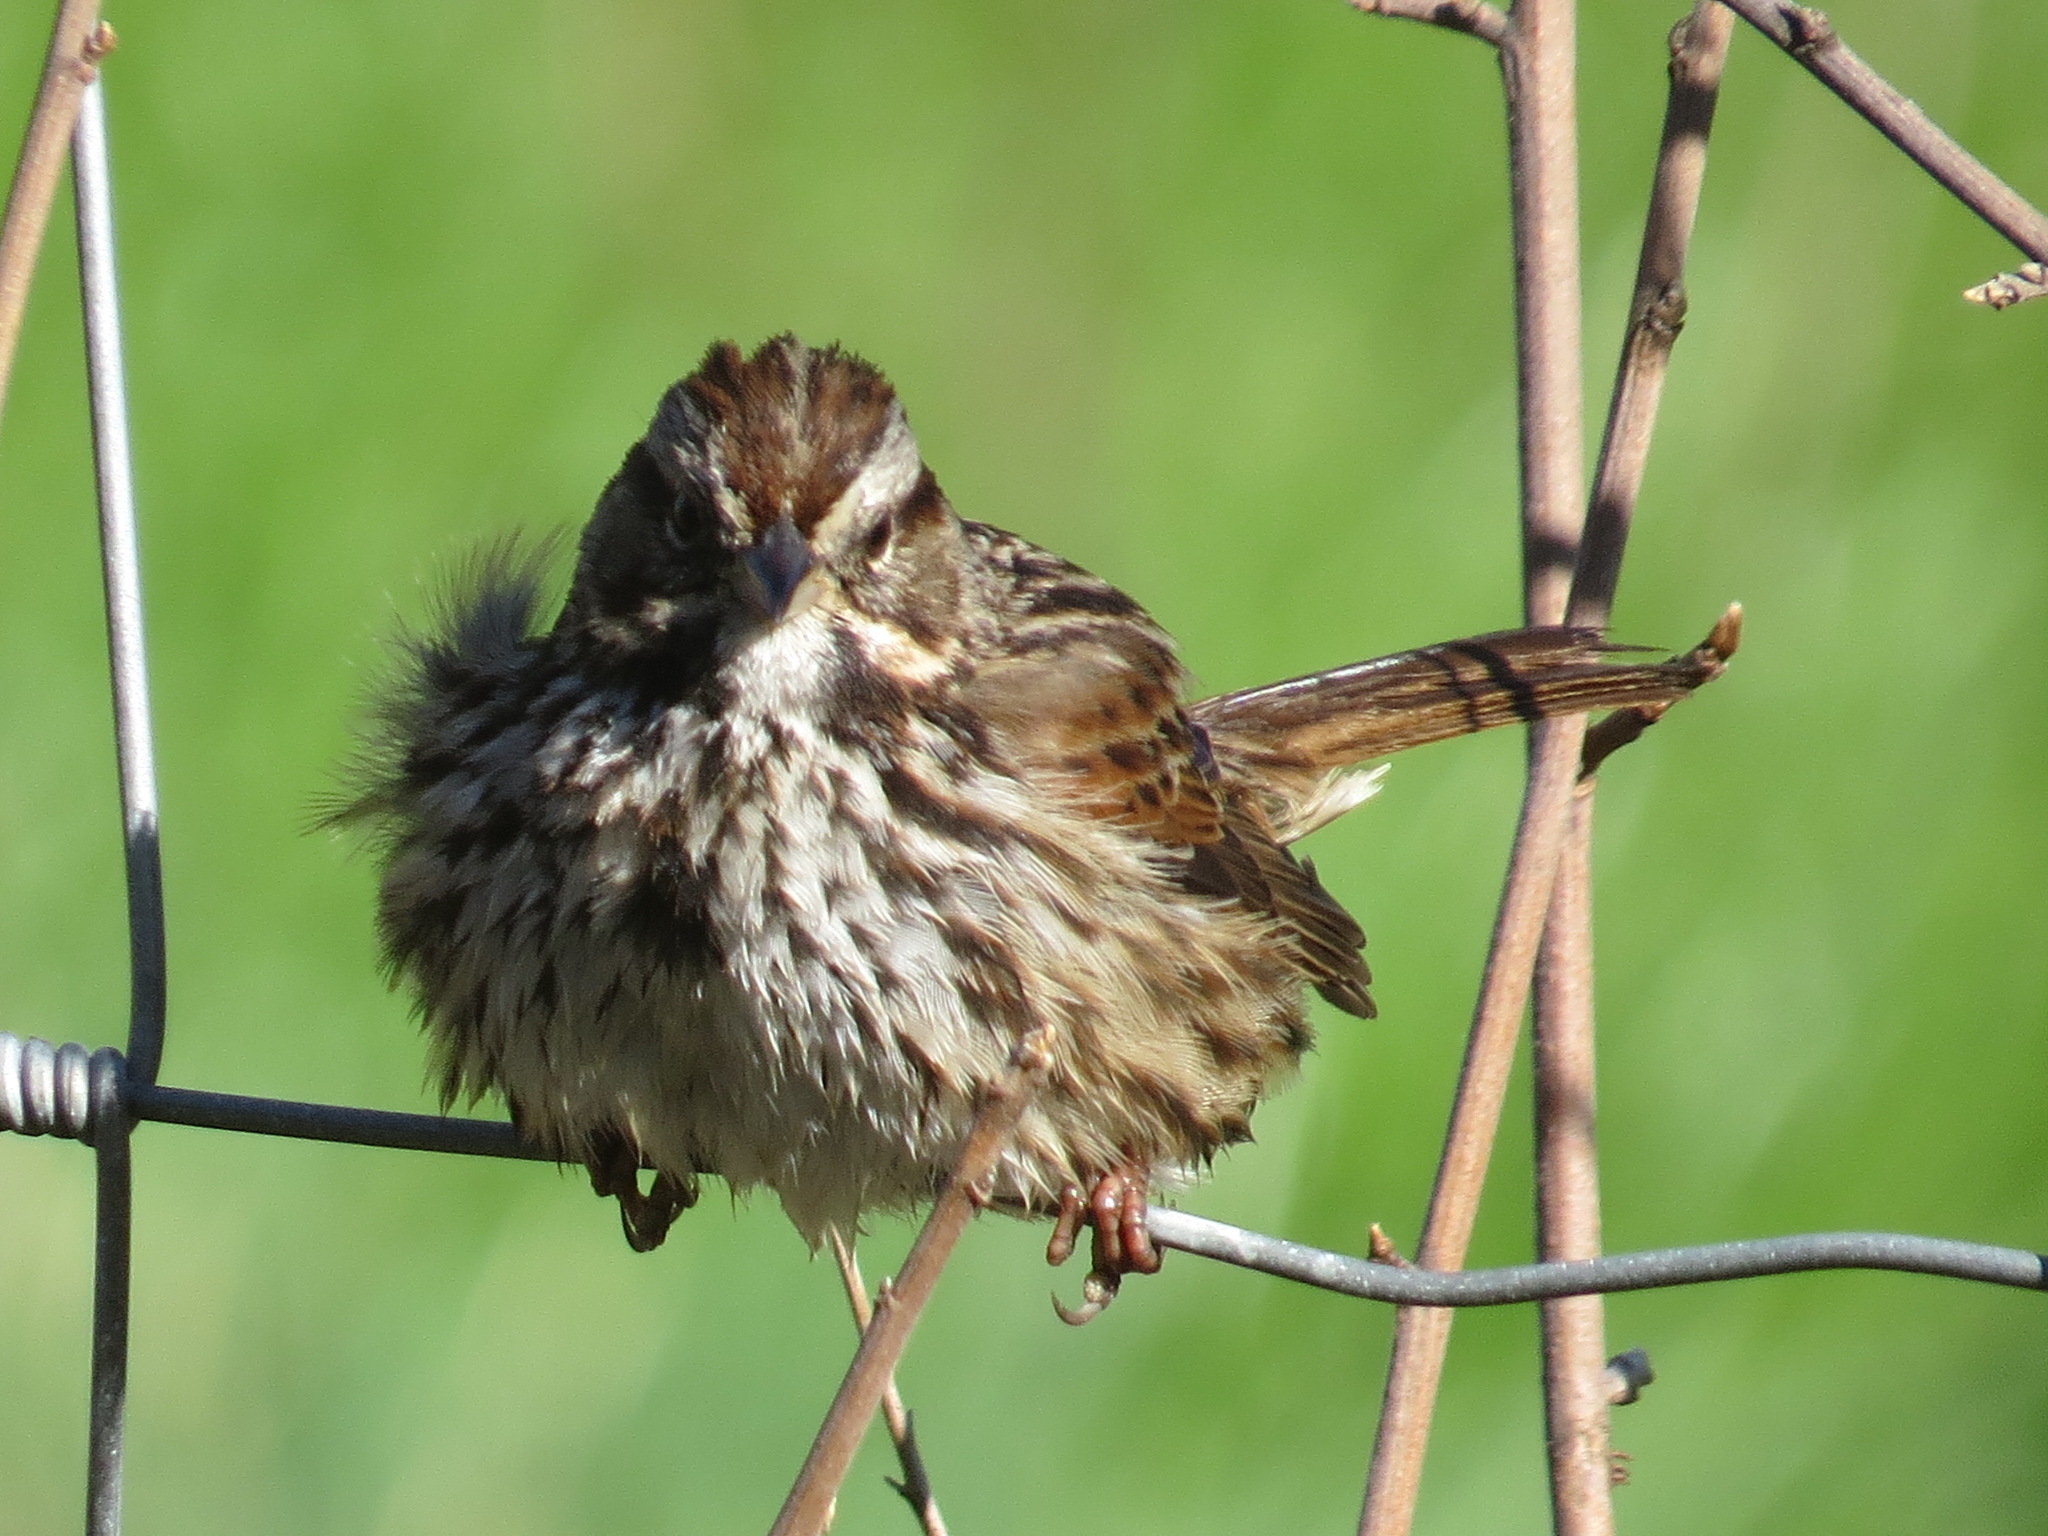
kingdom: Animalia
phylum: Chordata
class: Aves
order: Passeriformes
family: Passerellidae
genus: Melospiza
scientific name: Melospiza melodia
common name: Song sparrow
